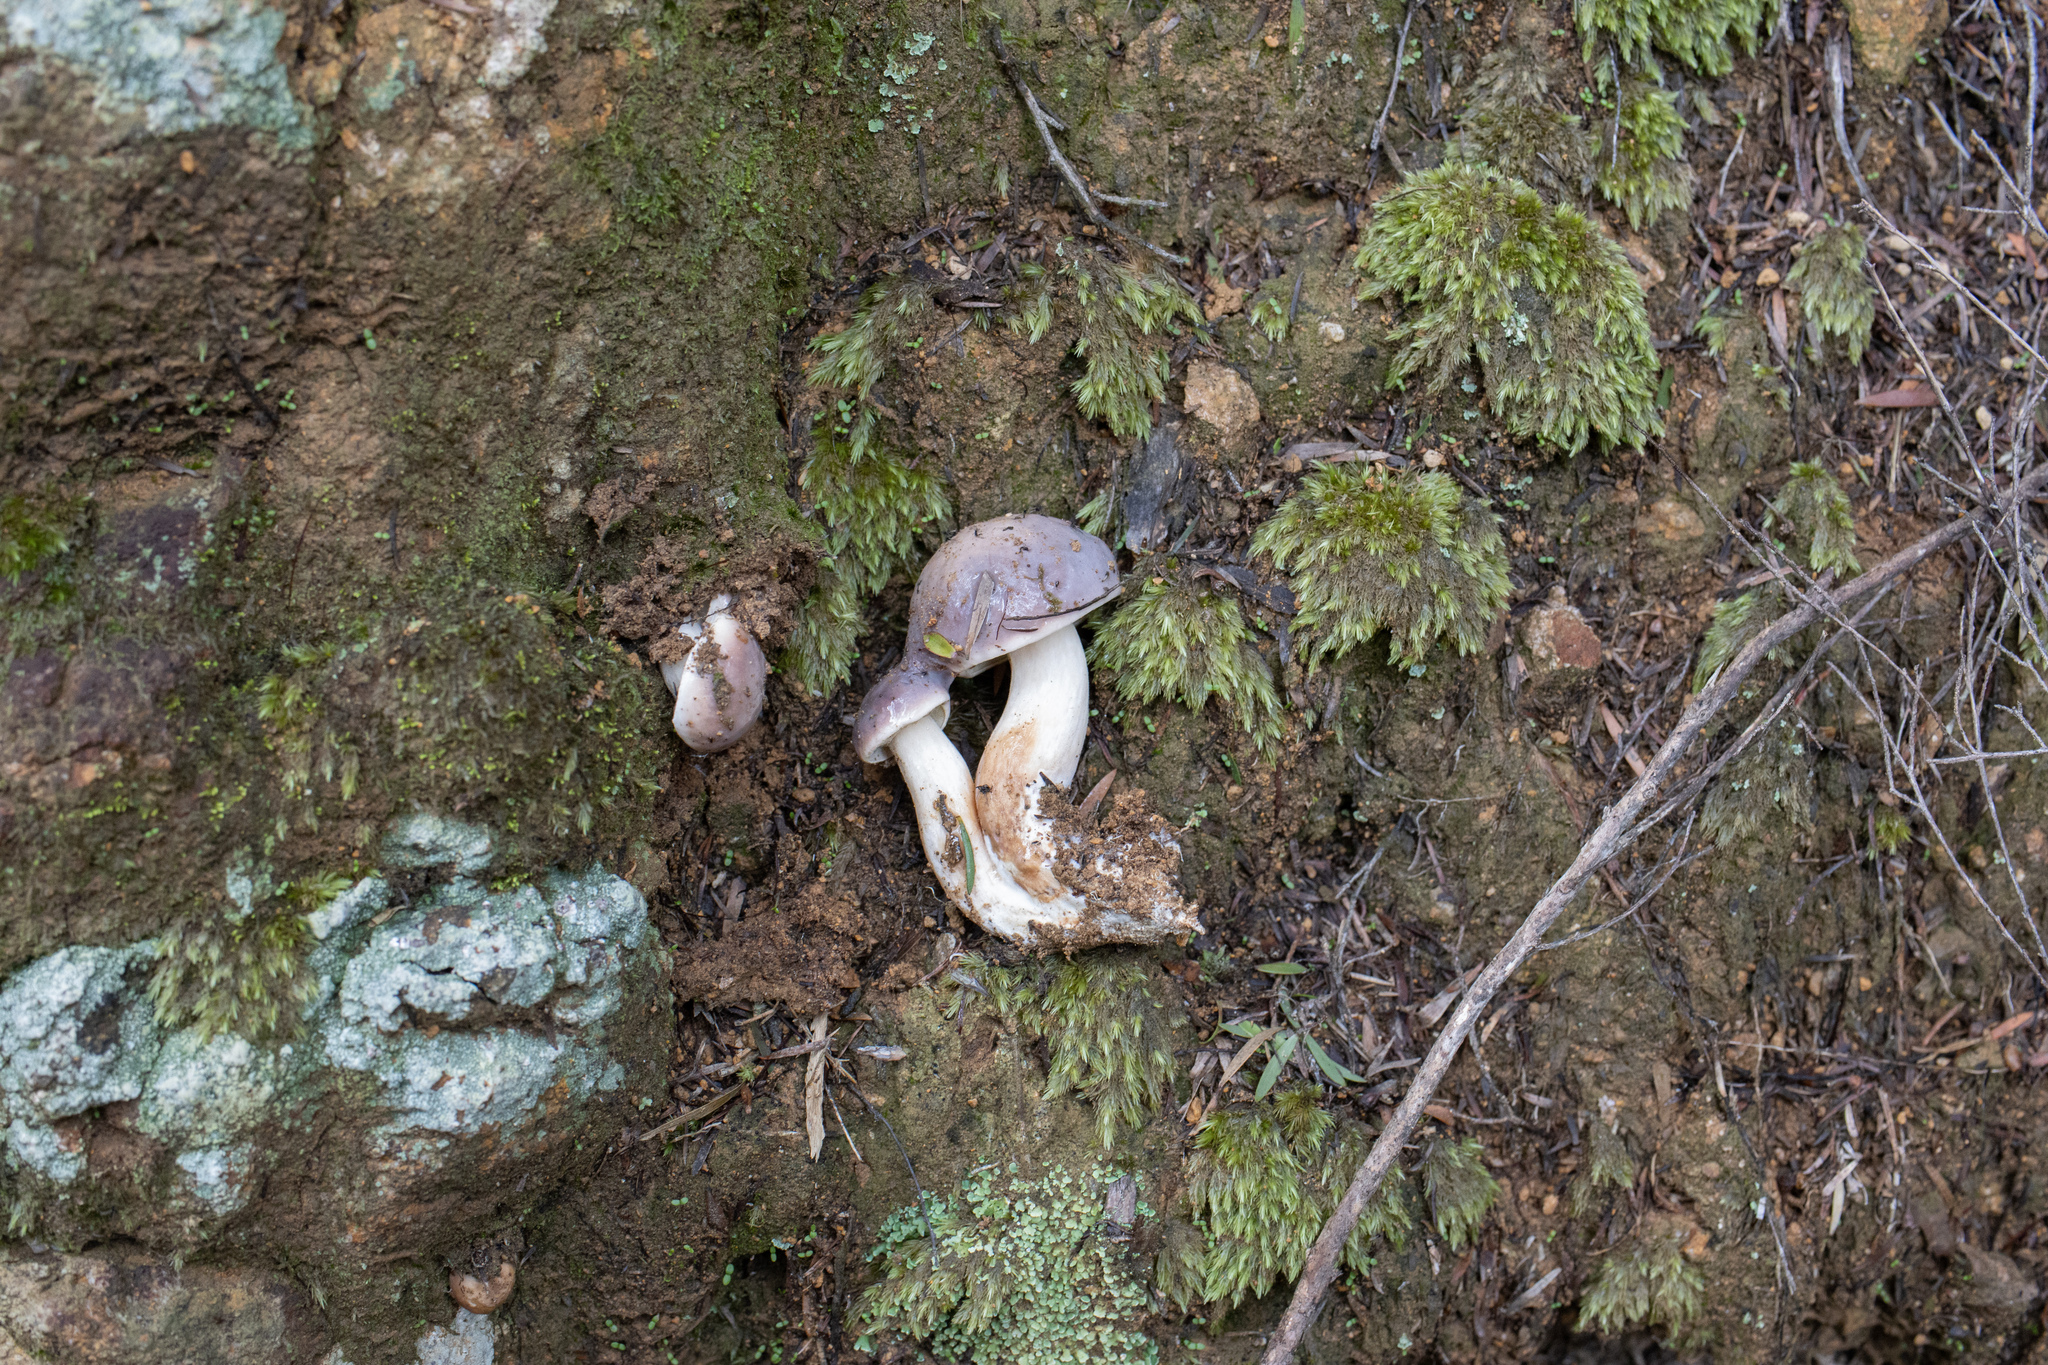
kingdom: Fungi
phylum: Basidiomycota
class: Agaricomycetes
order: Boletales
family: Suillaceae
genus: Suillus
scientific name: Suillus pungens
